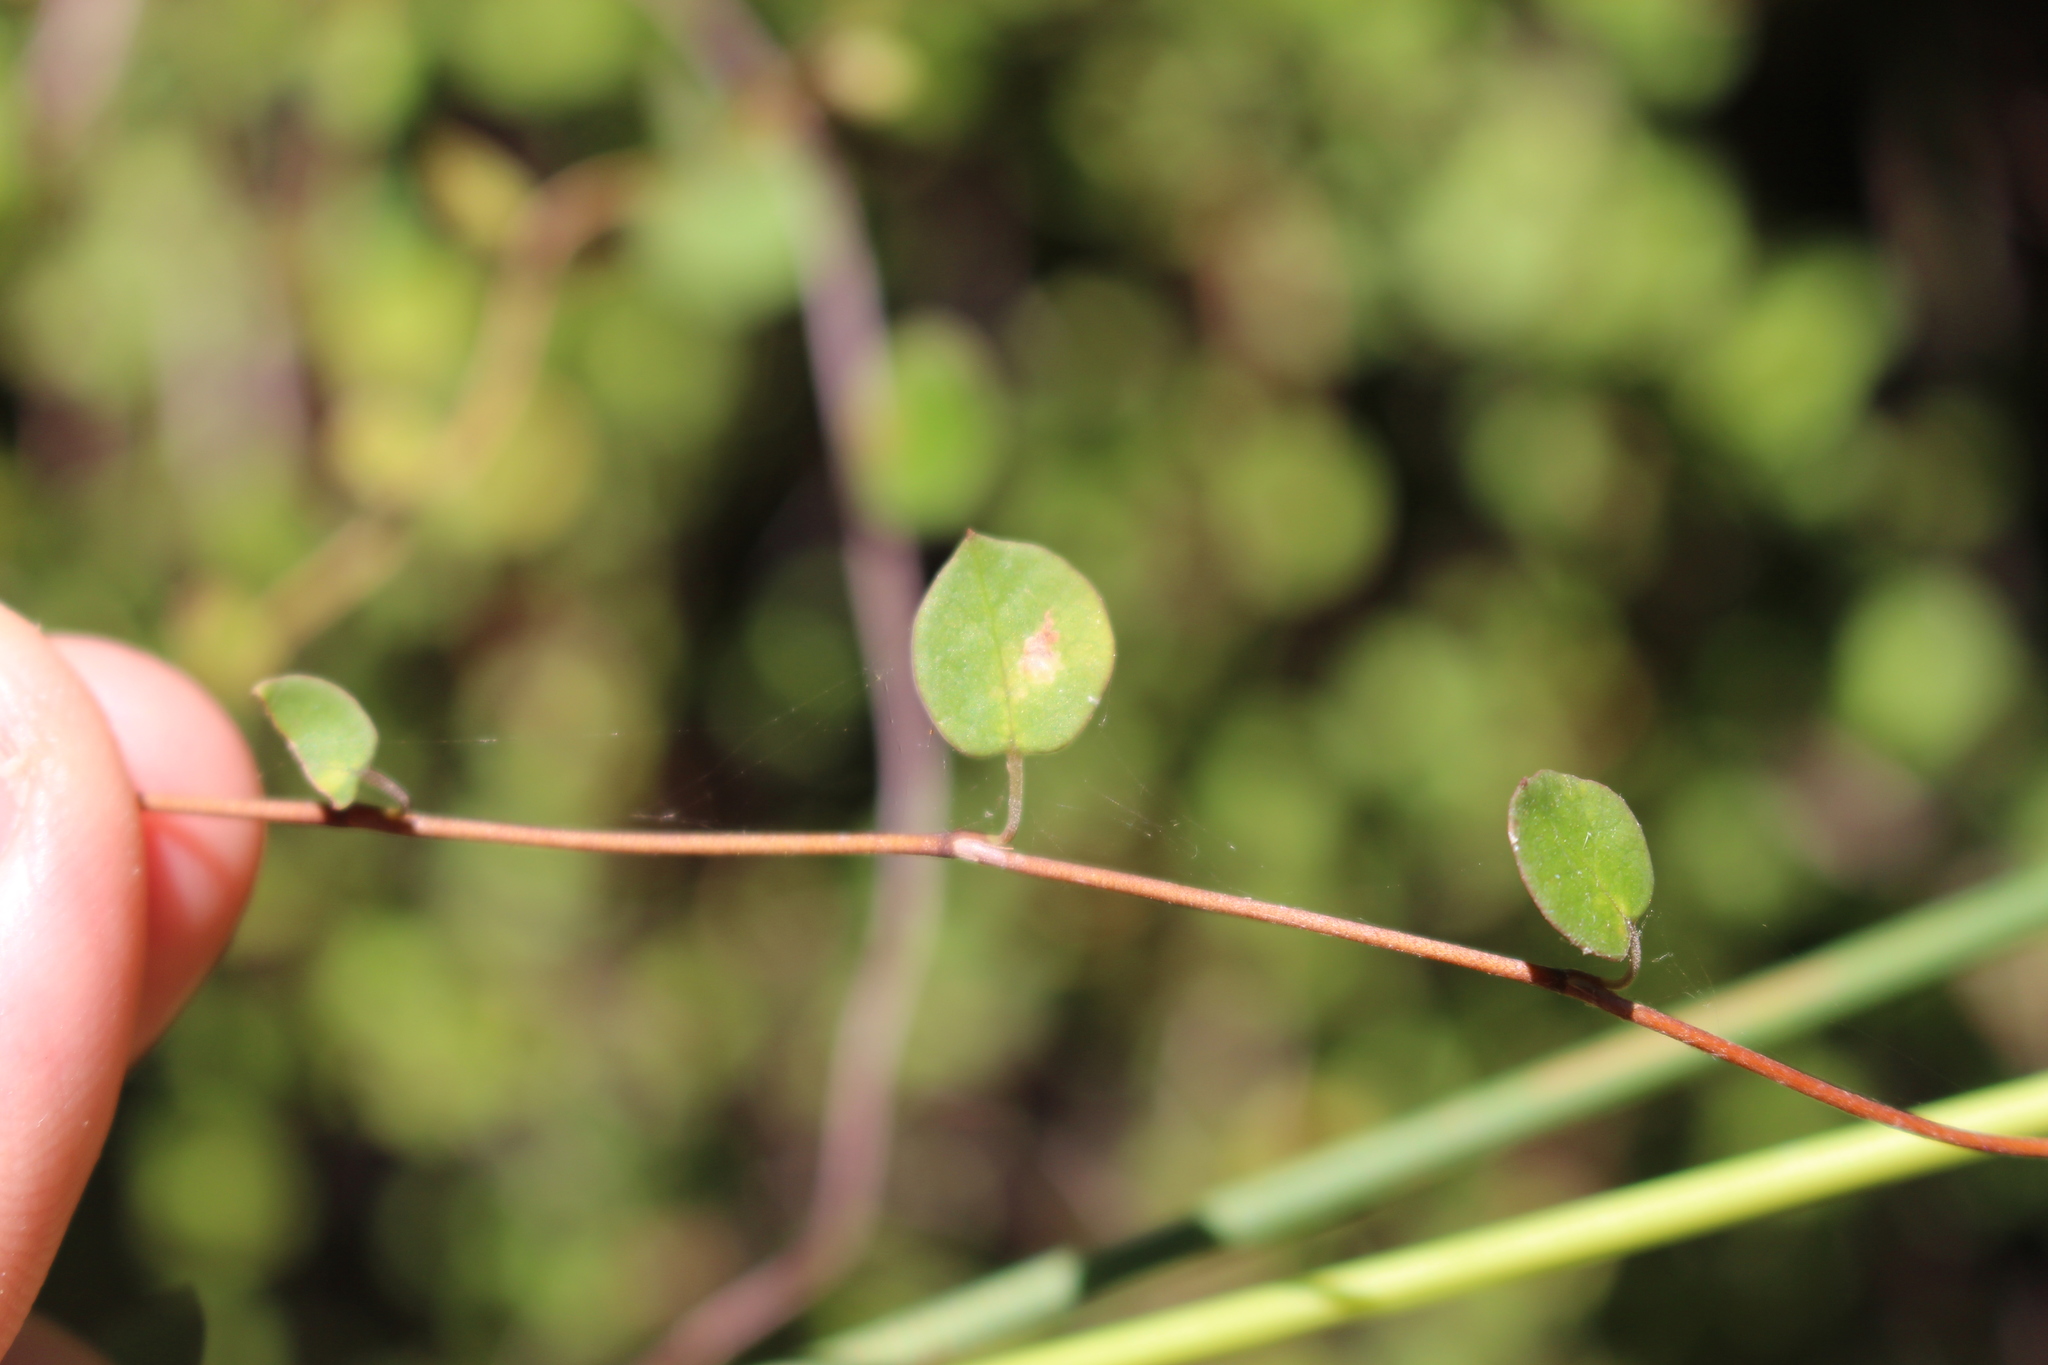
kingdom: Plantae
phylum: Tracheophyta
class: Magnoliopsida
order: Caryophyllales
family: Polygonaceae
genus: Muehlenbeckia
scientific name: Muehlenbeckia complexa
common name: Wireplant
